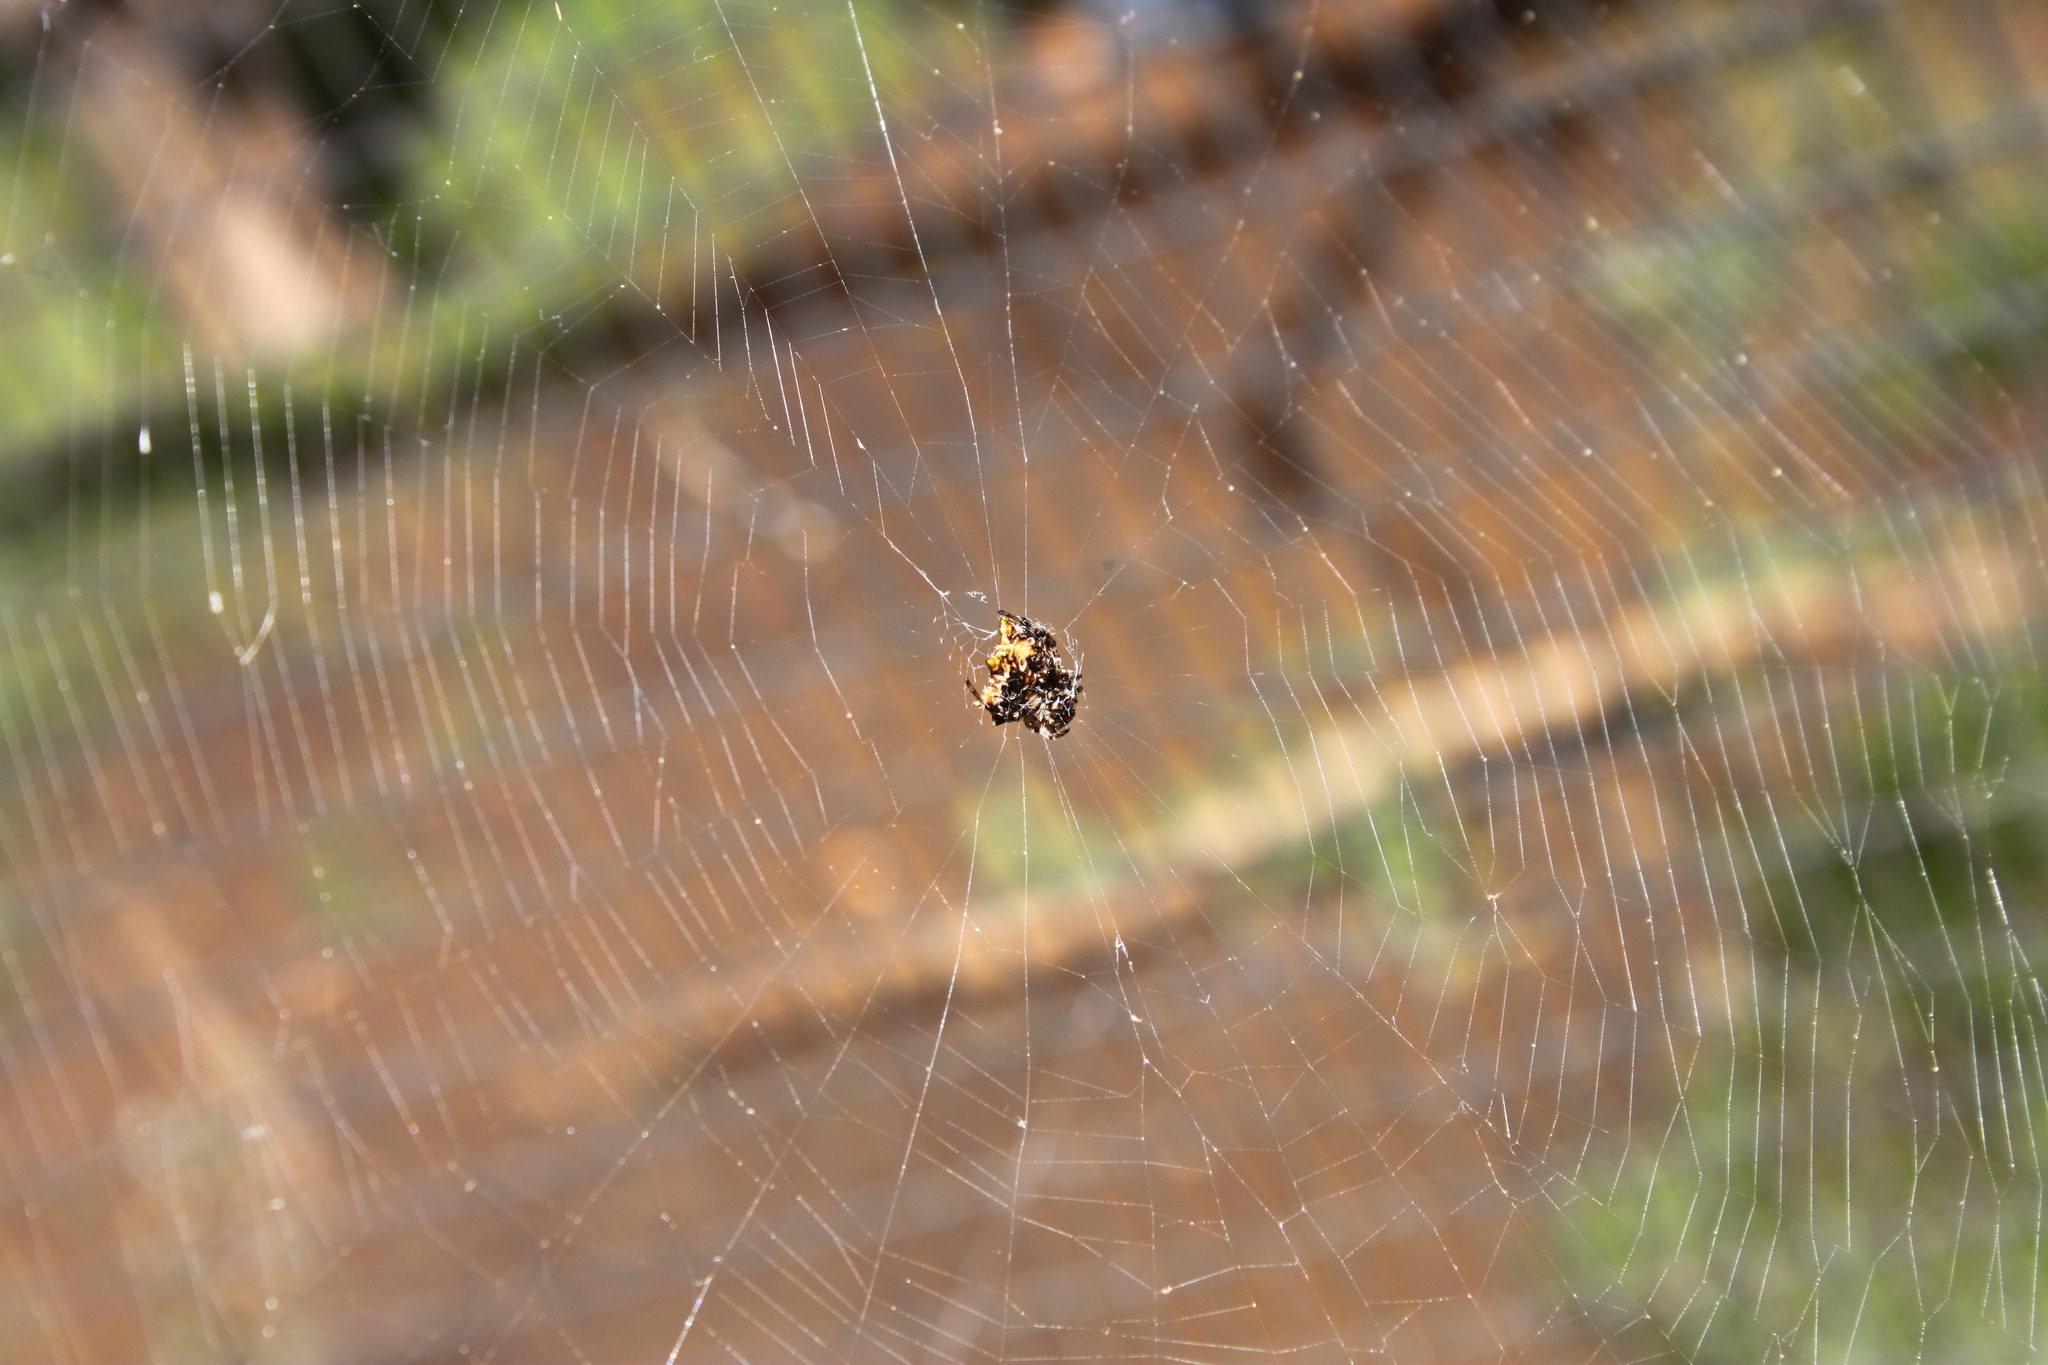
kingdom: Animalia
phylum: Arthropoda
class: Arachnida
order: Araneae
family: Araneidae
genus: Thelacantha
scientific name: Thelacantha brevispina
